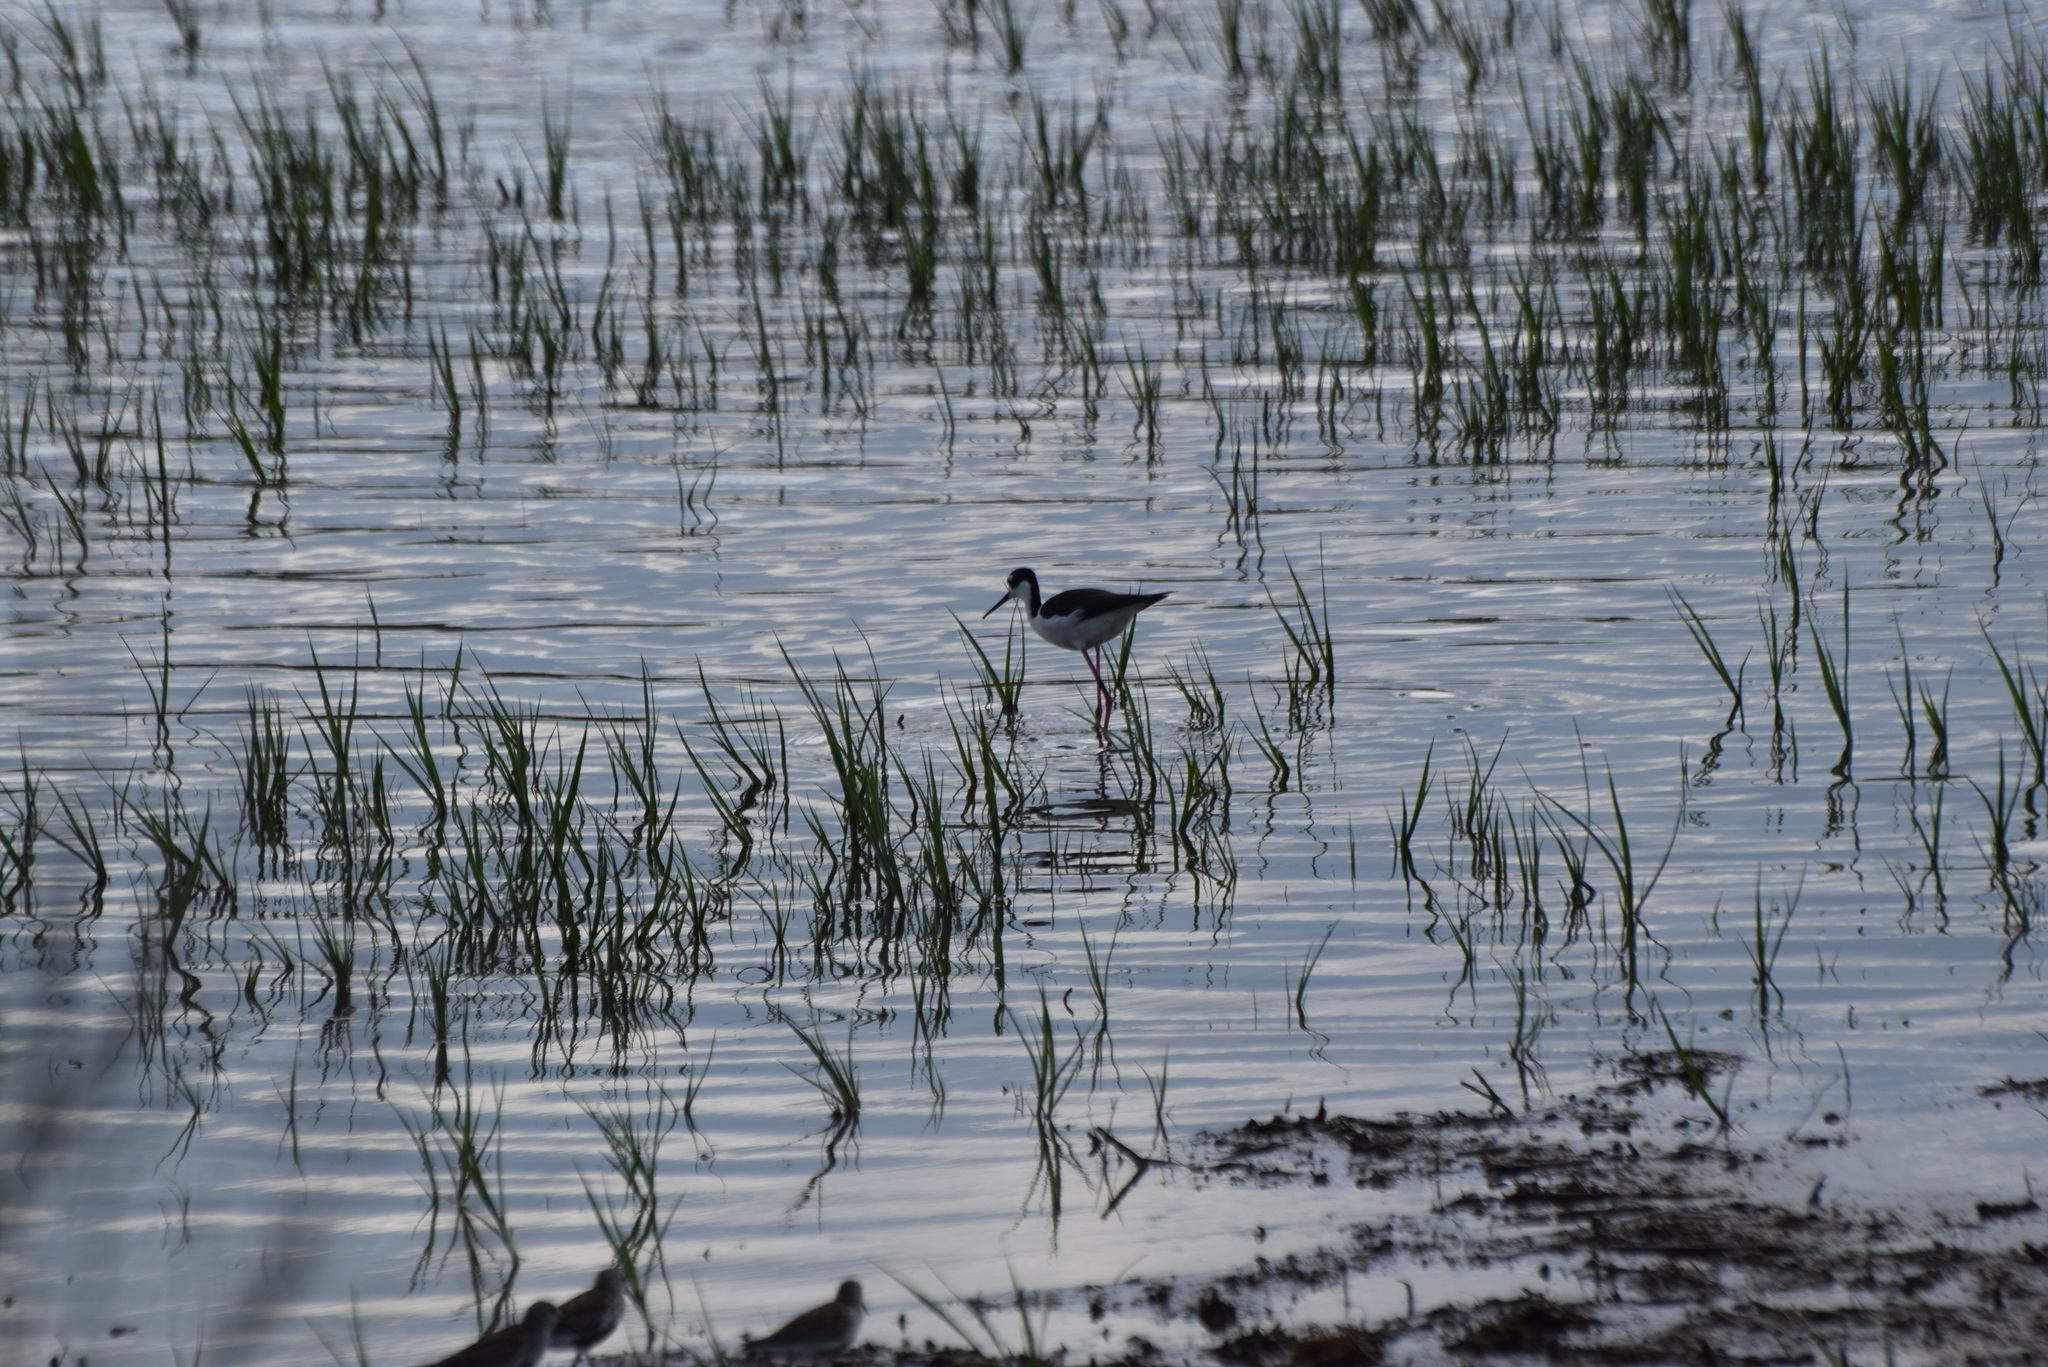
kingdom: Animalia
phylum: Chordata
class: Aves
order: Charadriiformes
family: Recurvirostridae
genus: Himantopus
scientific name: Himantopus mexicanus
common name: Black-necked stilt
